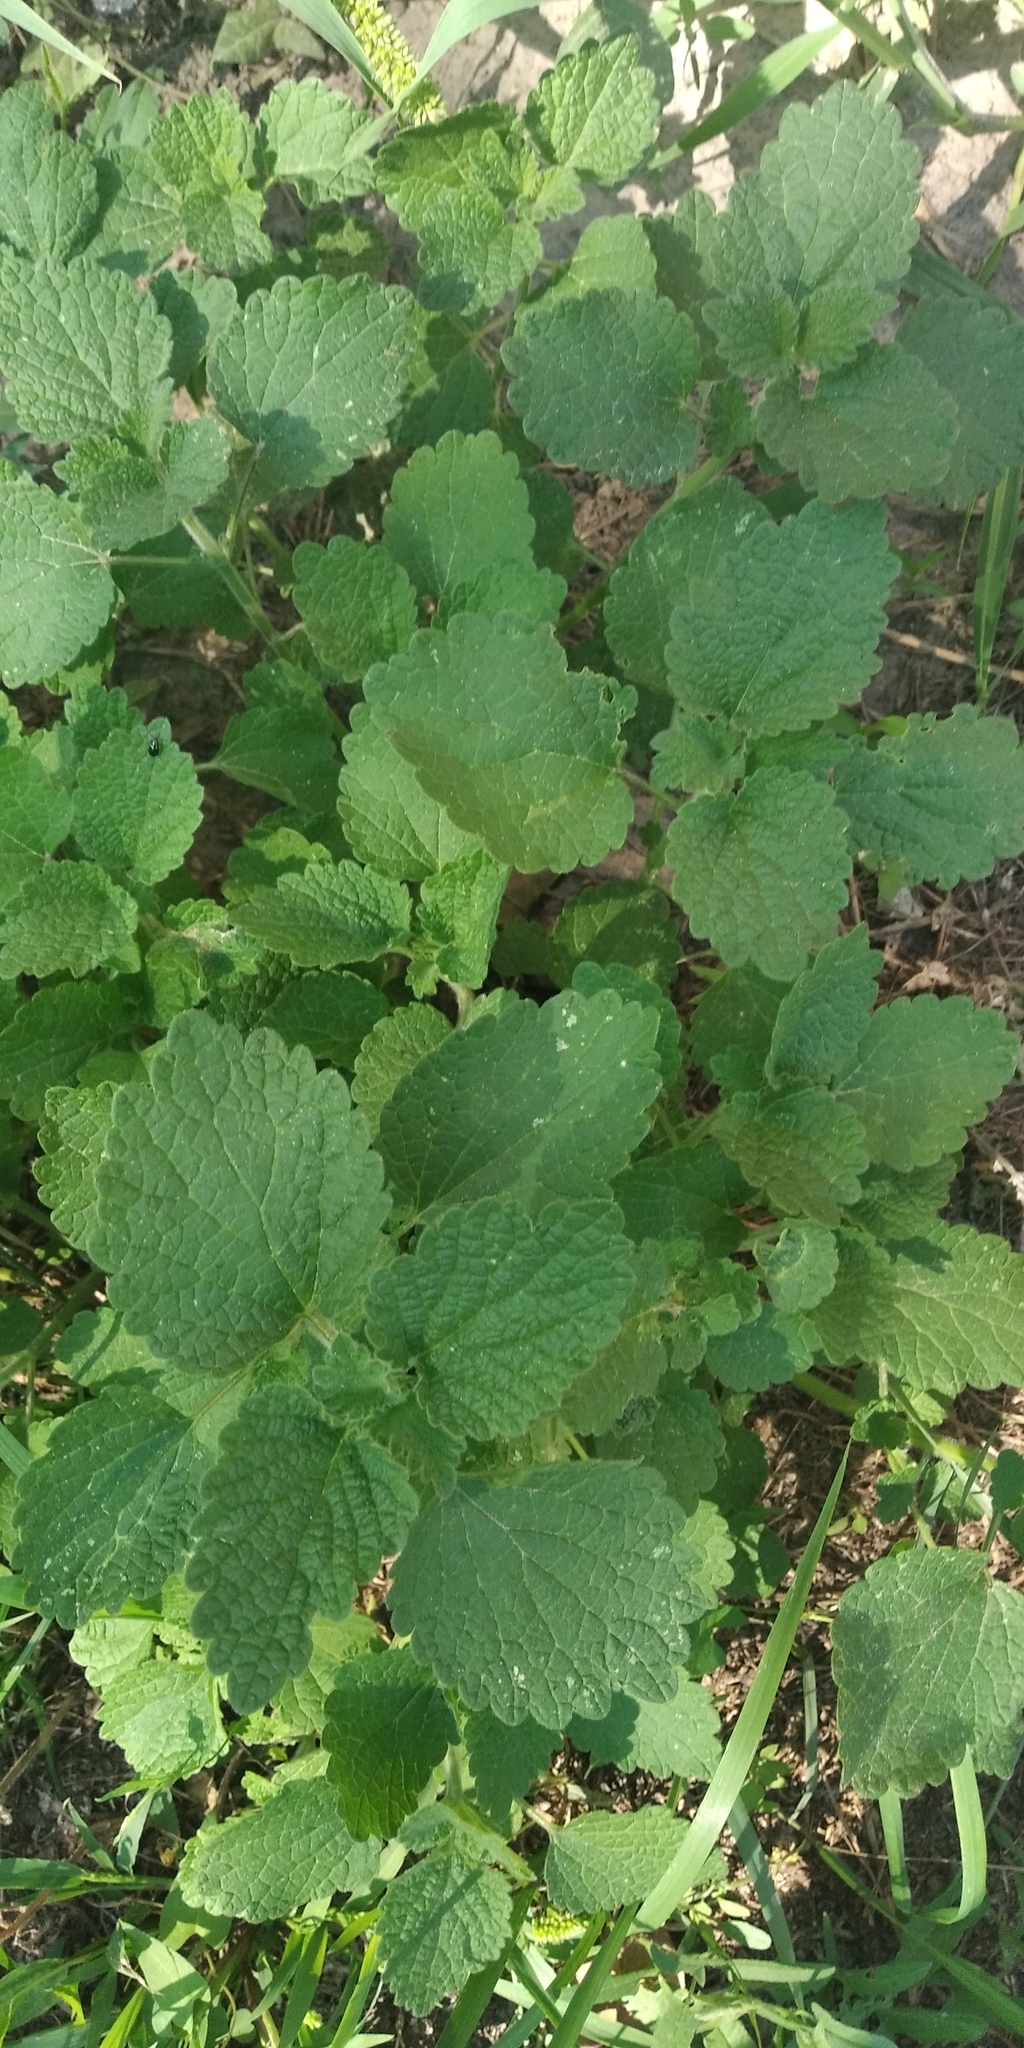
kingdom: Plantae
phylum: Tracheophyta
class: Magnoliopsida
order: Lamiales
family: Lamiaceae
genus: Ballota
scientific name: Ballota nigra
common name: Black horehound
